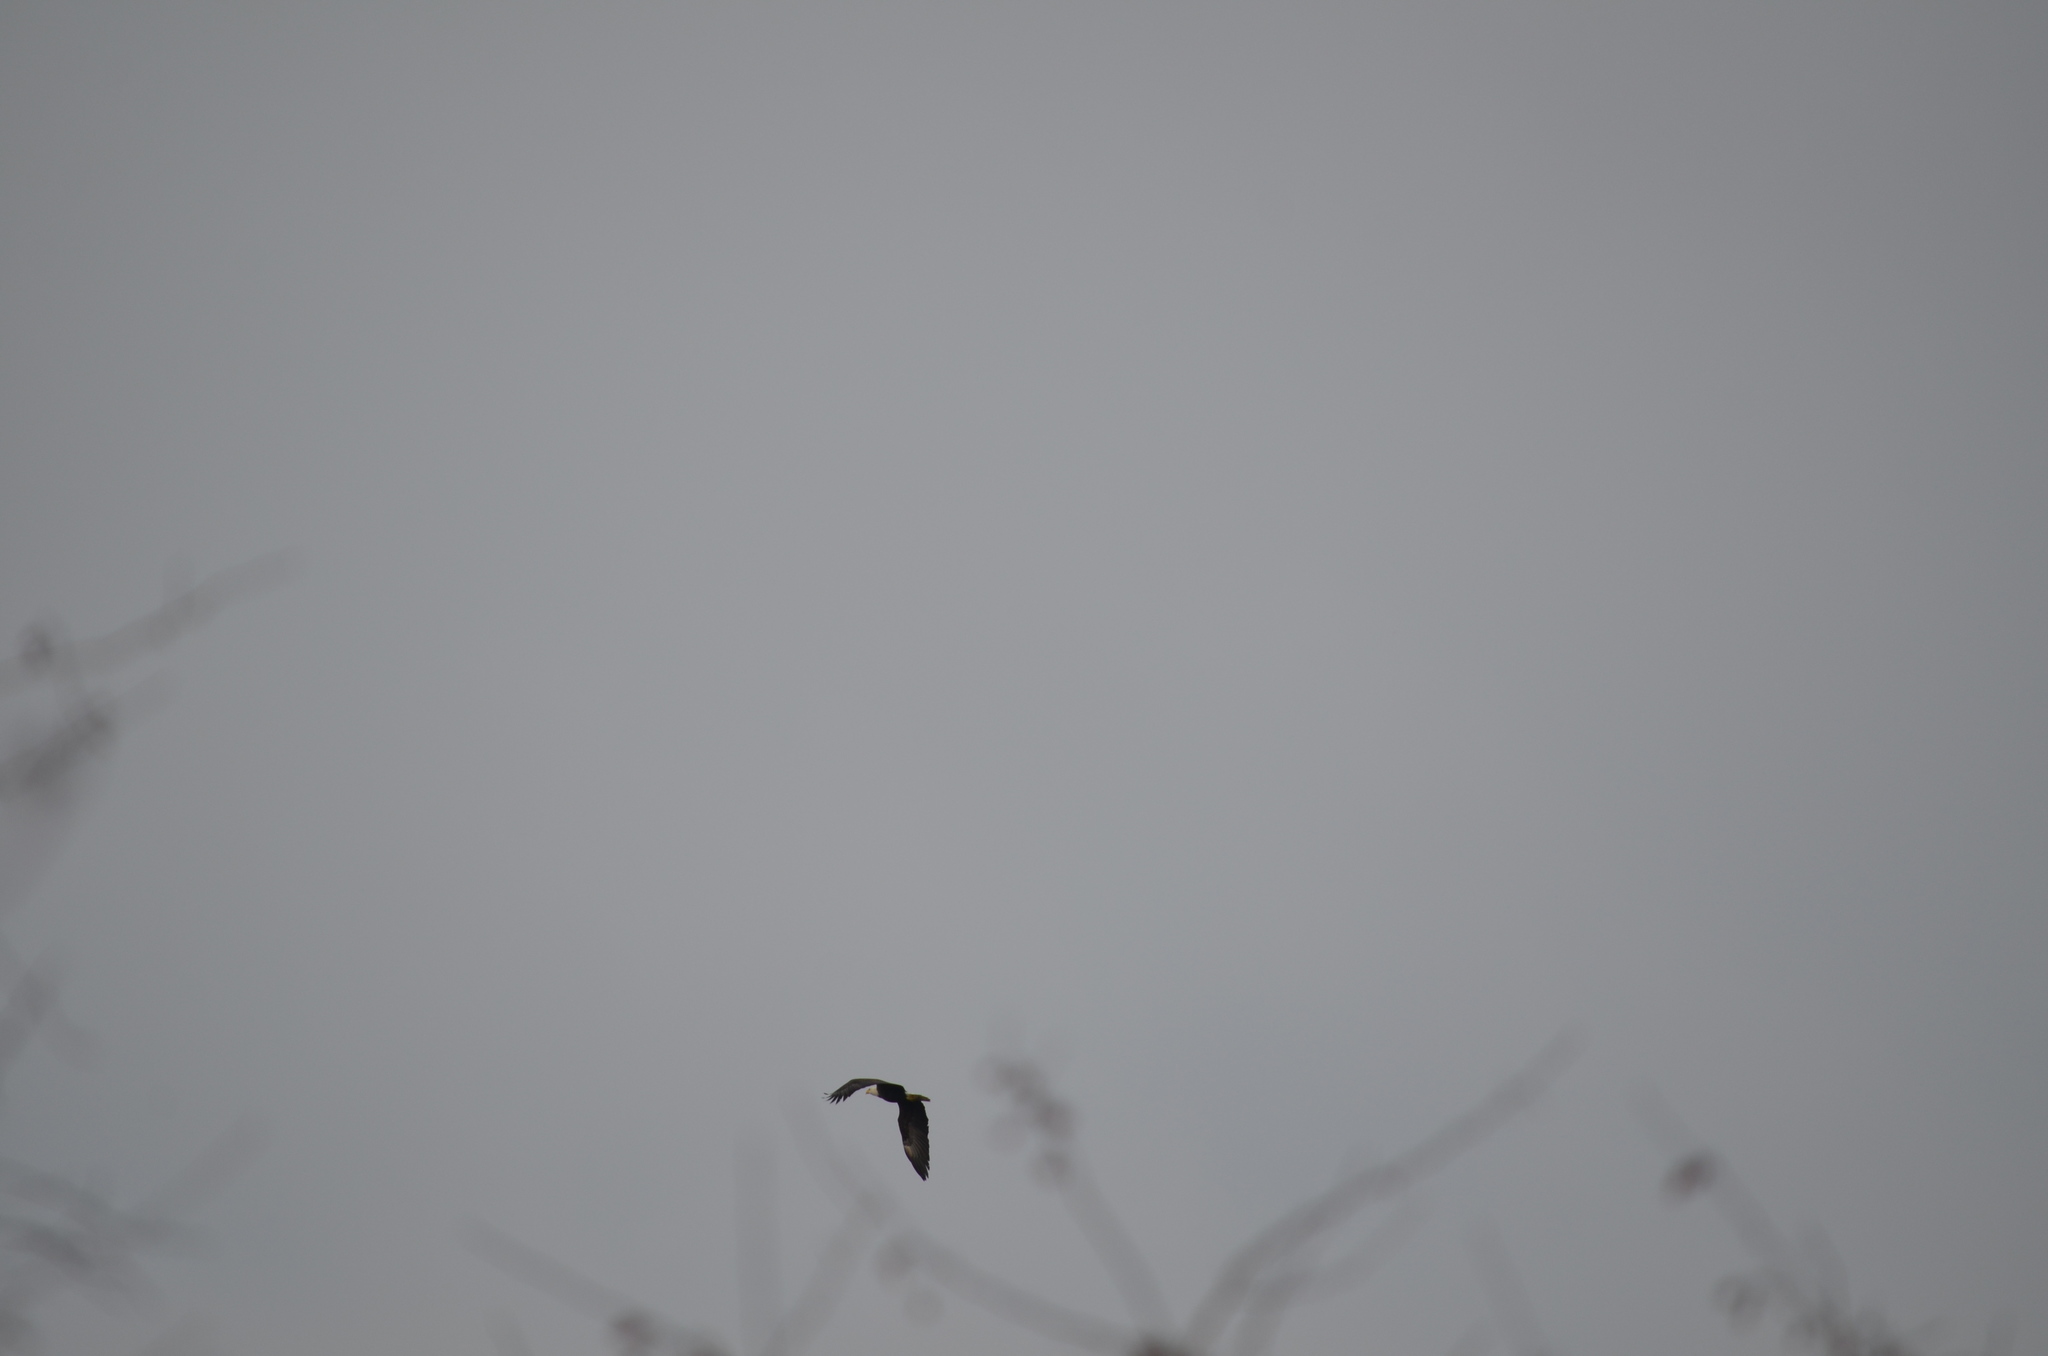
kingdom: Animalia
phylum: Chordata
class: Aves
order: Accipitriformes
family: Accipitridae
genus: Haliaeetus
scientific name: Haliaeetus leucocephalus
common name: Bald eagle
